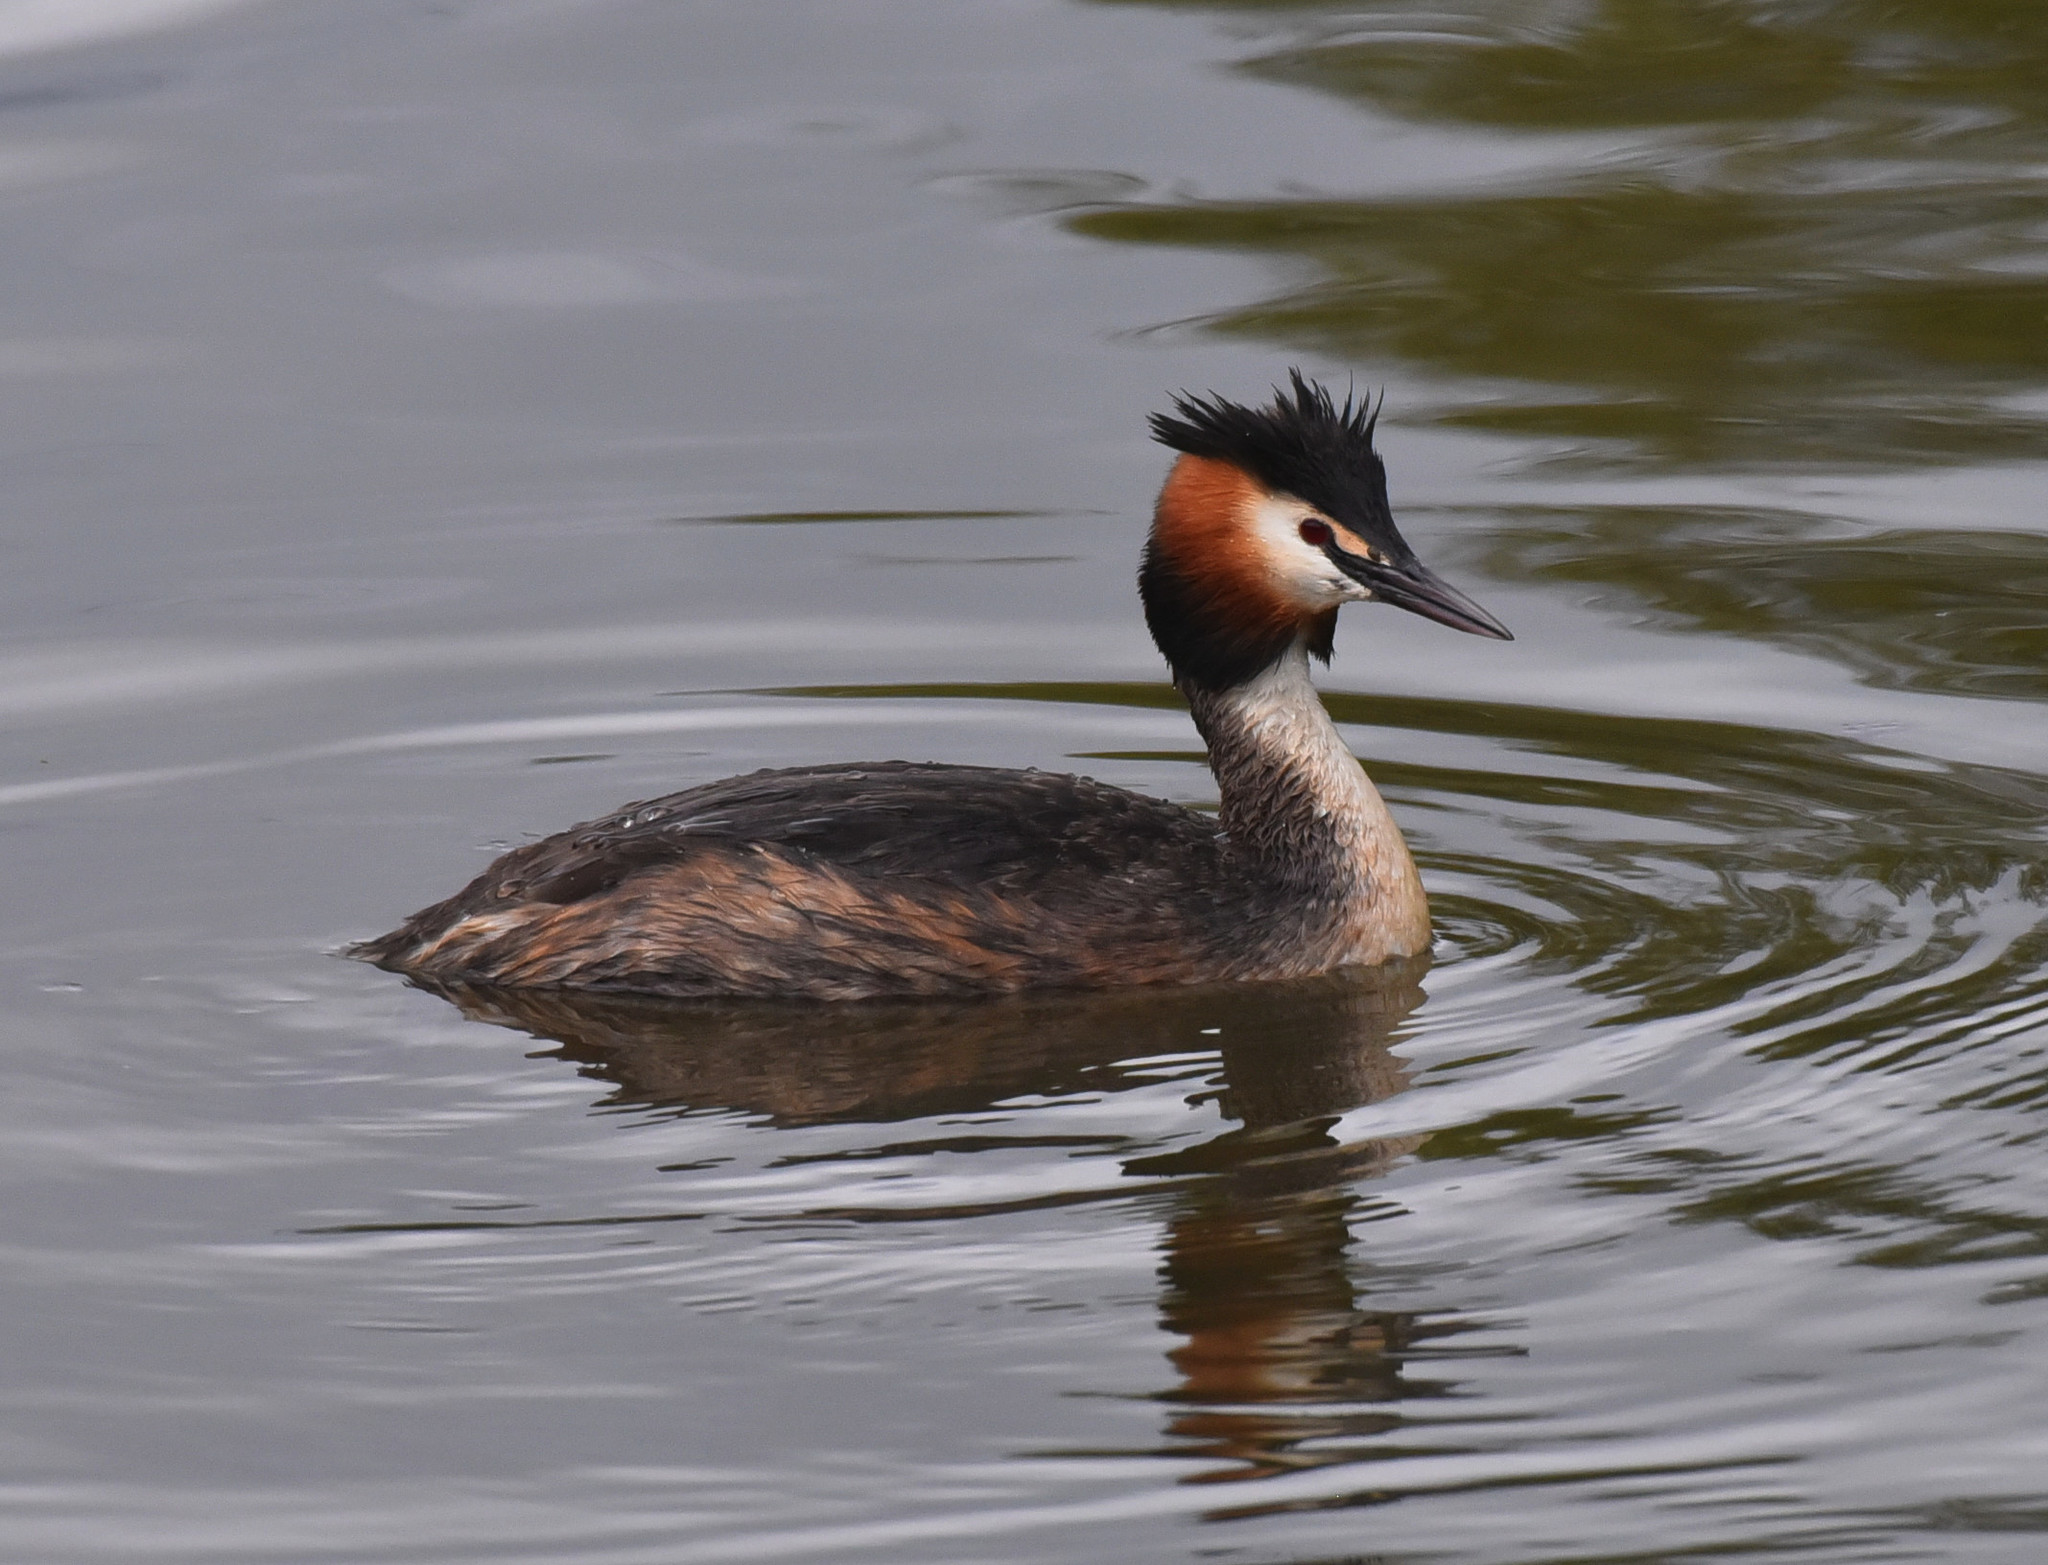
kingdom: Animalia
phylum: Chordata
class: Aves
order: Podicipediformes
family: Podicipedidae
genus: Podiceps
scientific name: Podiceps cristatus
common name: Great crested grebe
